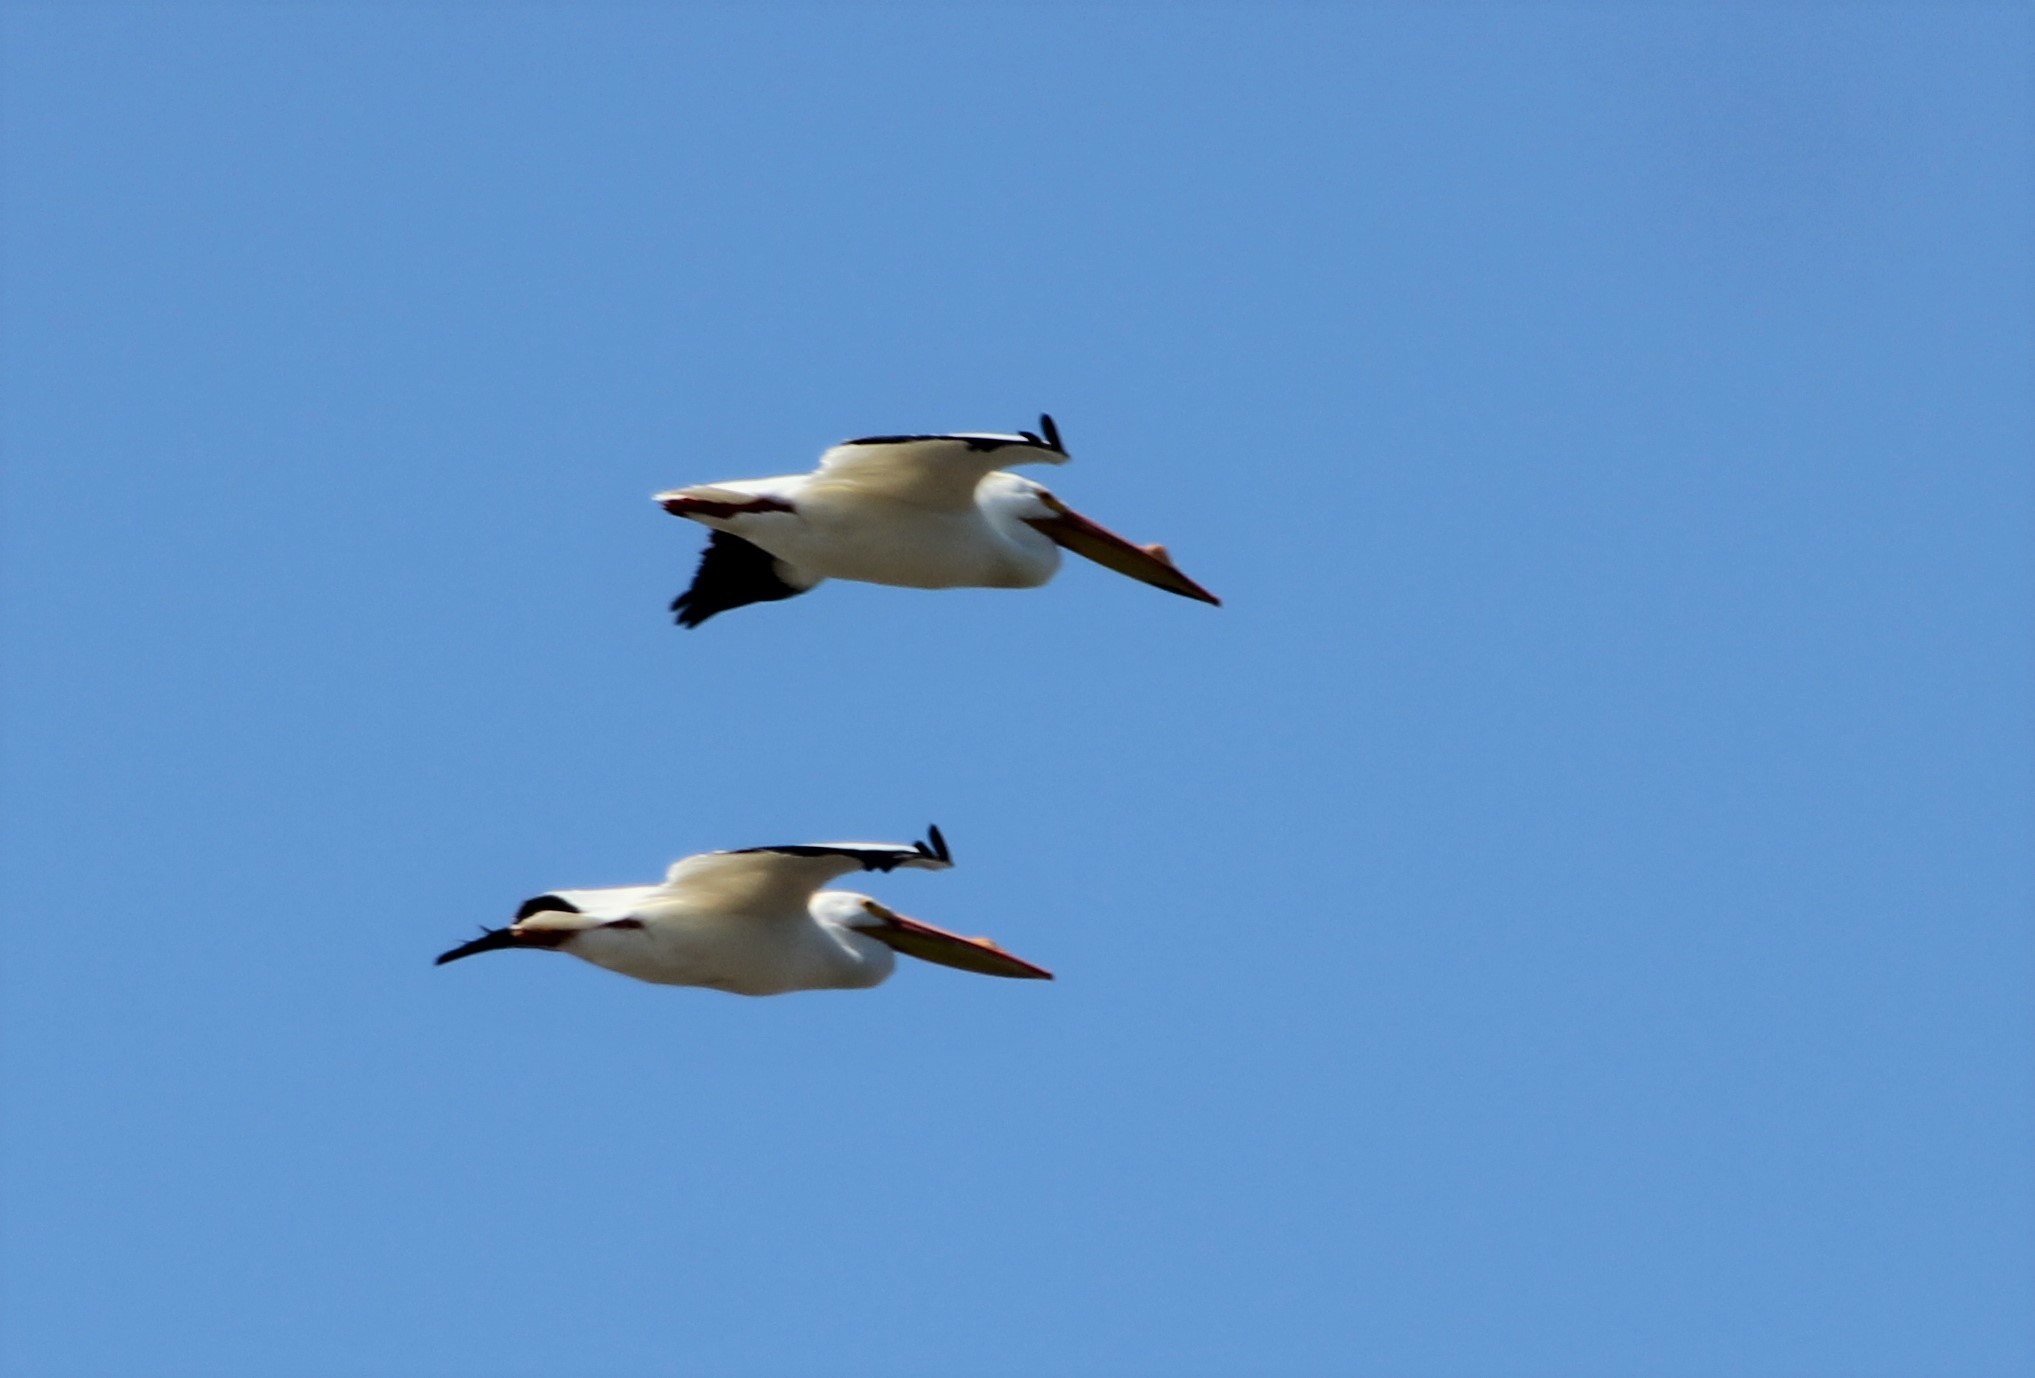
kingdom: Animalia
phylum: Chordata
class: Aves
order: Pelecaniformes
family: Pelecanidae
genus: Pelecanus
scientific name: Pelecanus erythrorhynchos
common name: American white pelican
